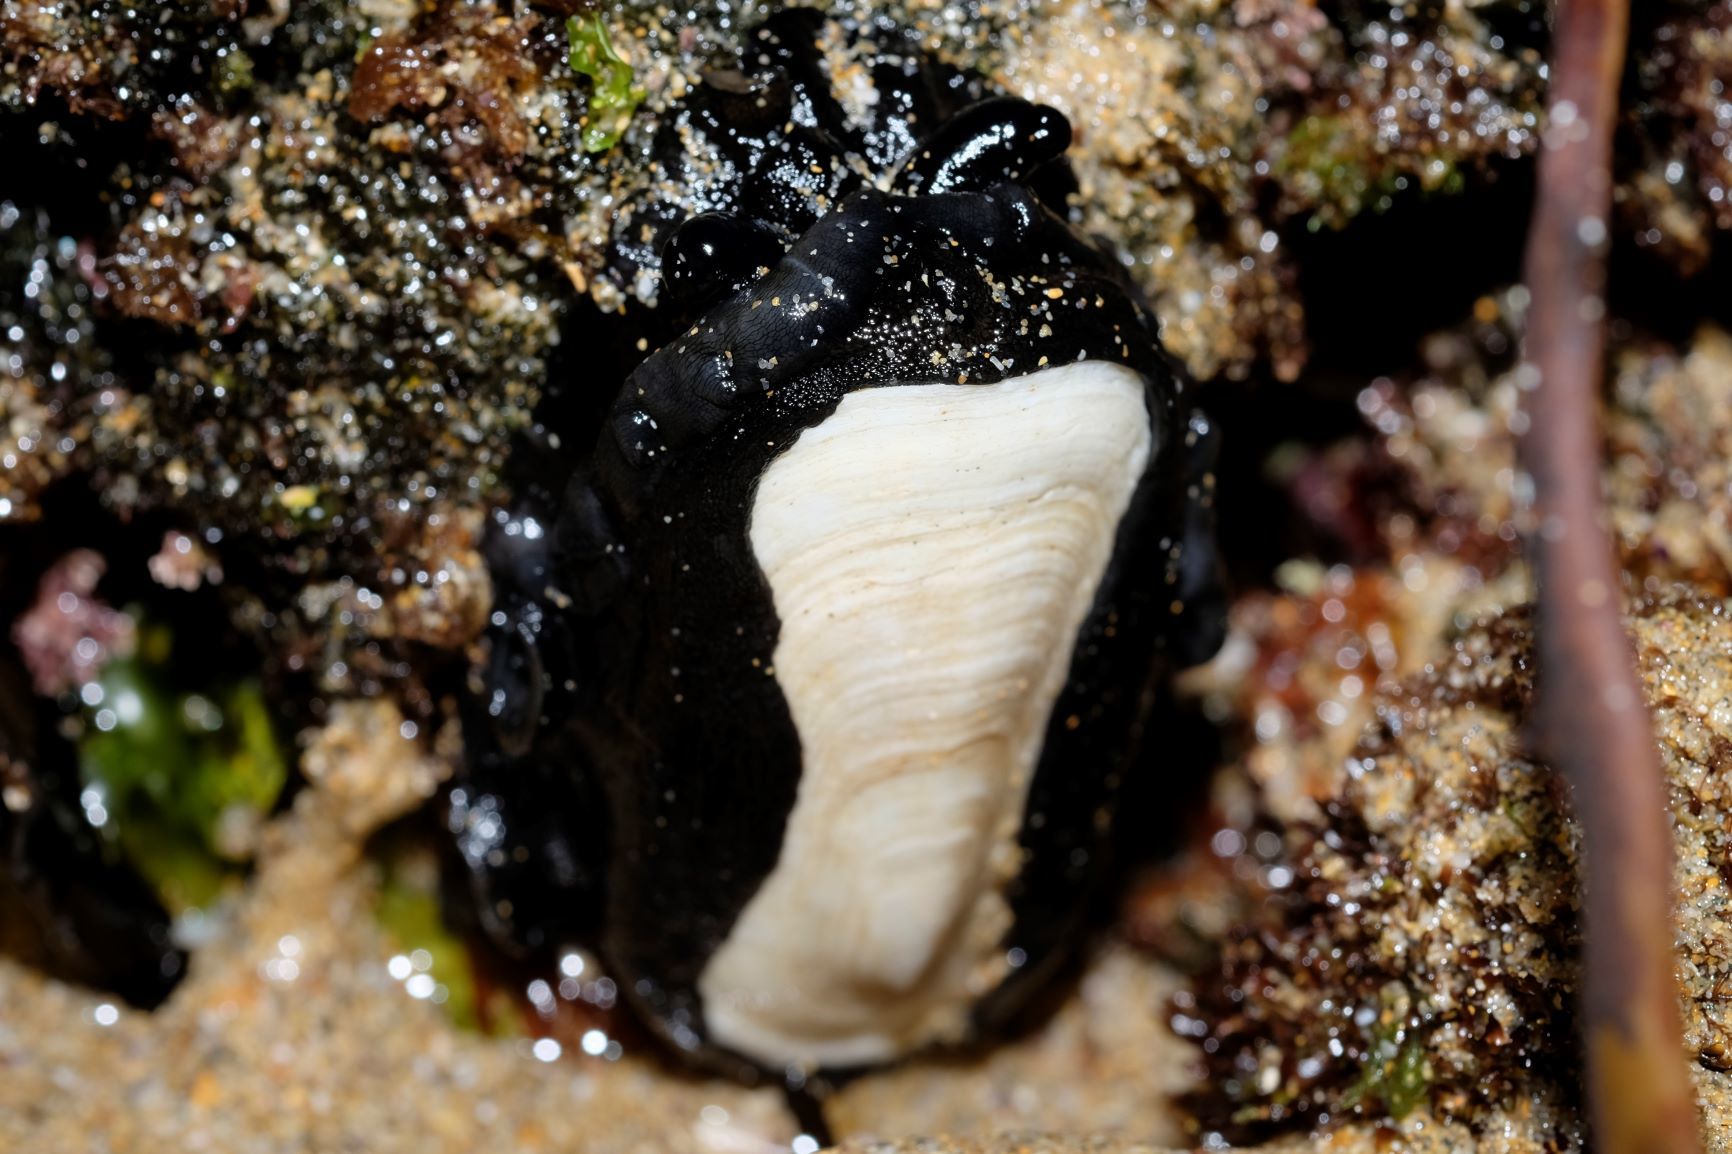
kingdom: Animalia
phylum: Mollusca
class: Gastropoda
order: Lepetellida
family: Fissurellidae
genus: Scutus
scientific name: Scutus antipodes
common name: Duckbill shell
